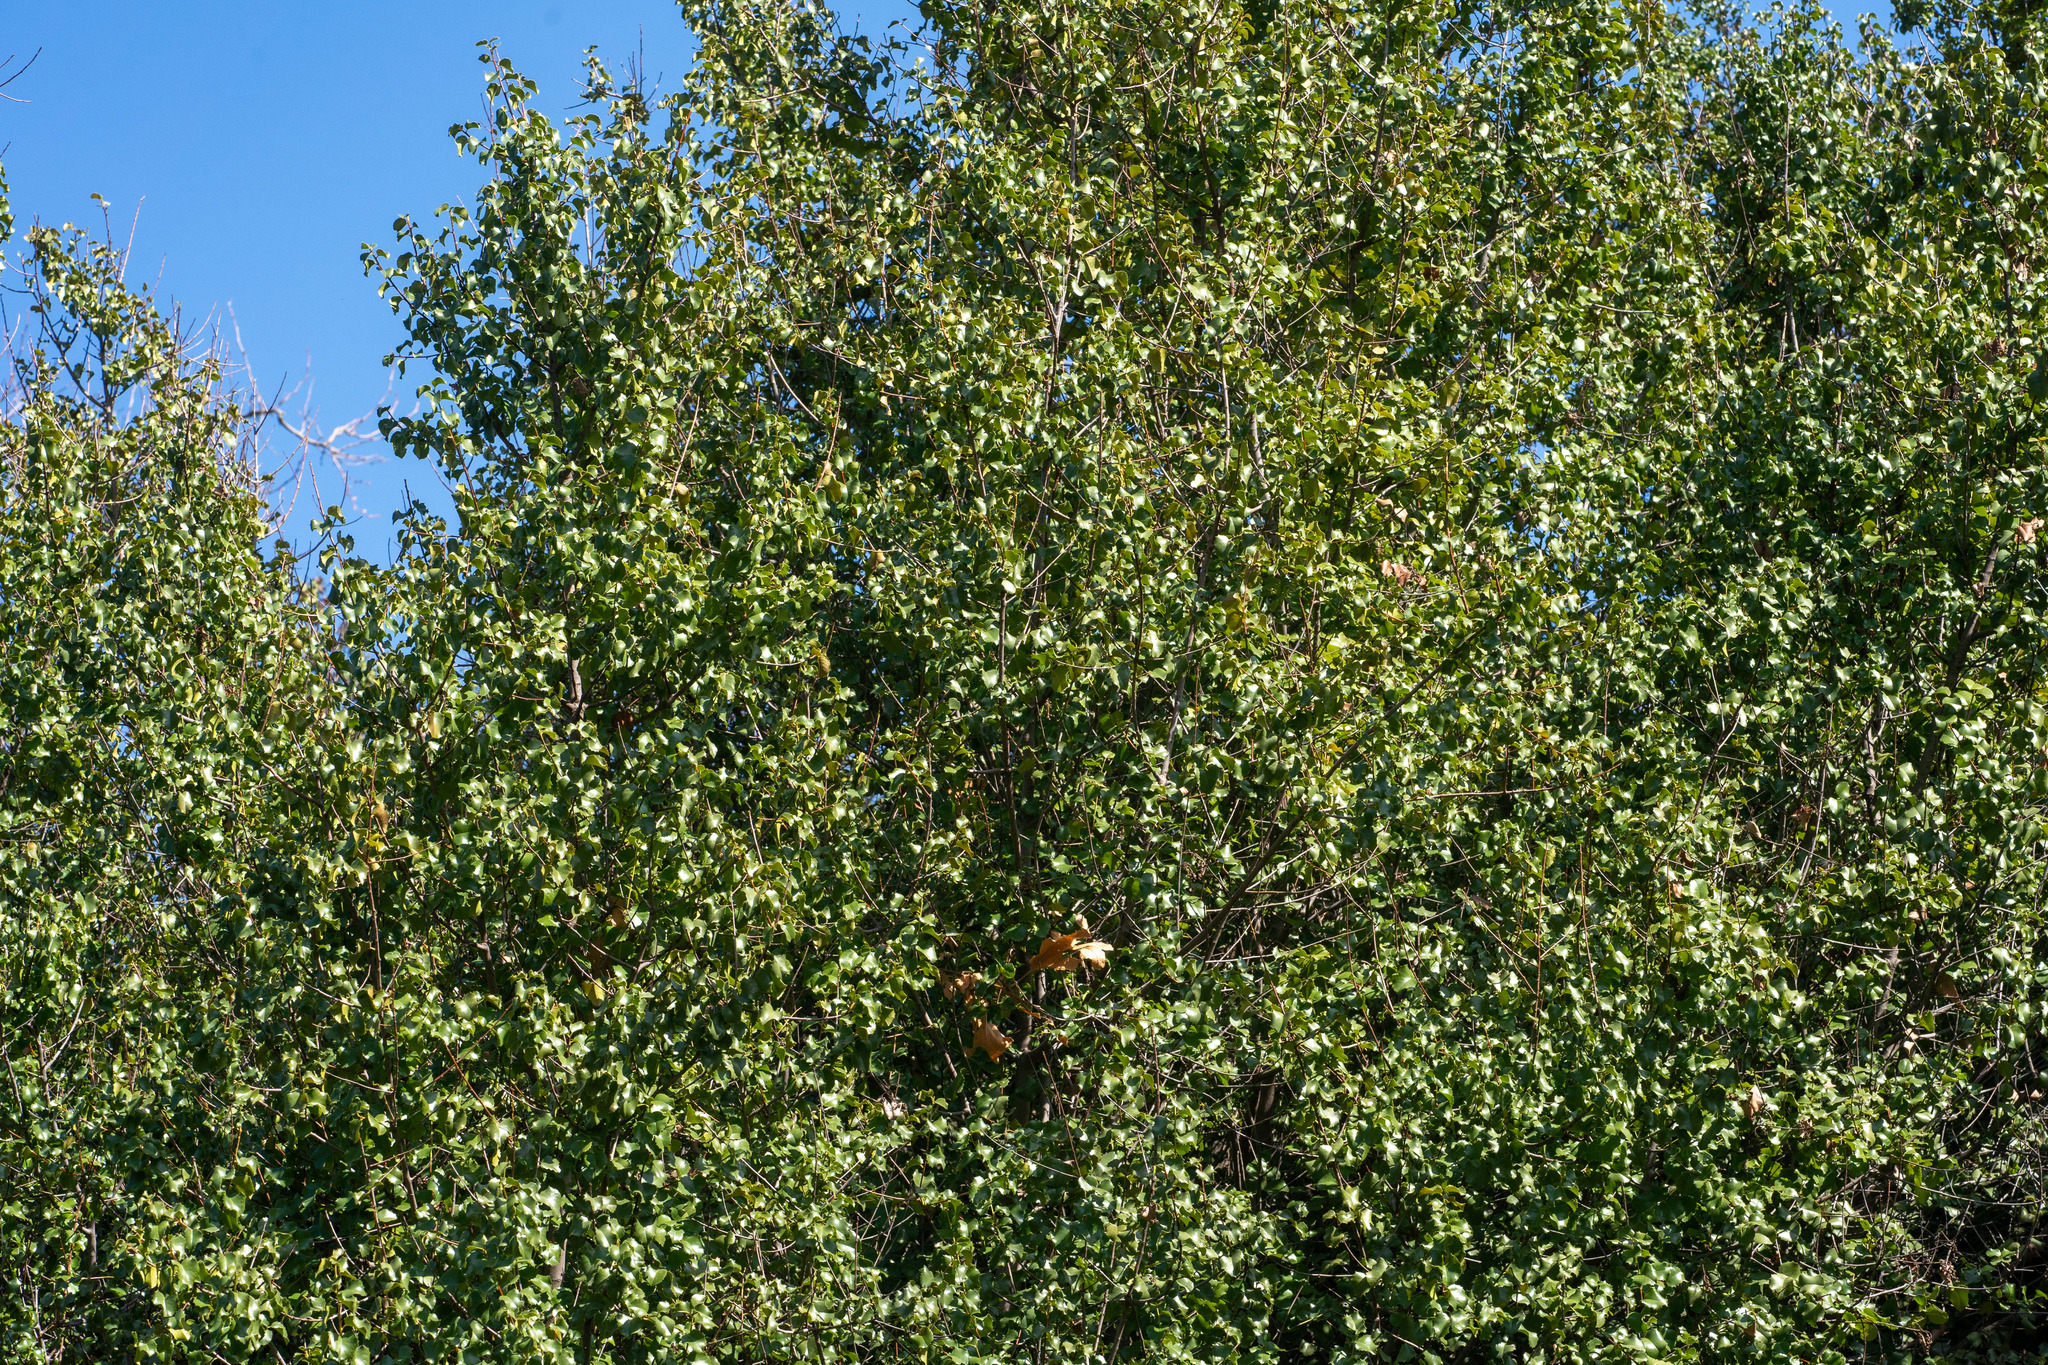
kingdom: Plantae
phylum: Tracheophyta
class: Magnoliopsida
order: Rosales
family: Rosaceae
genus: Prunus
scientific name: Prunus ilicifolia
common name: Hollyleaf cherry
